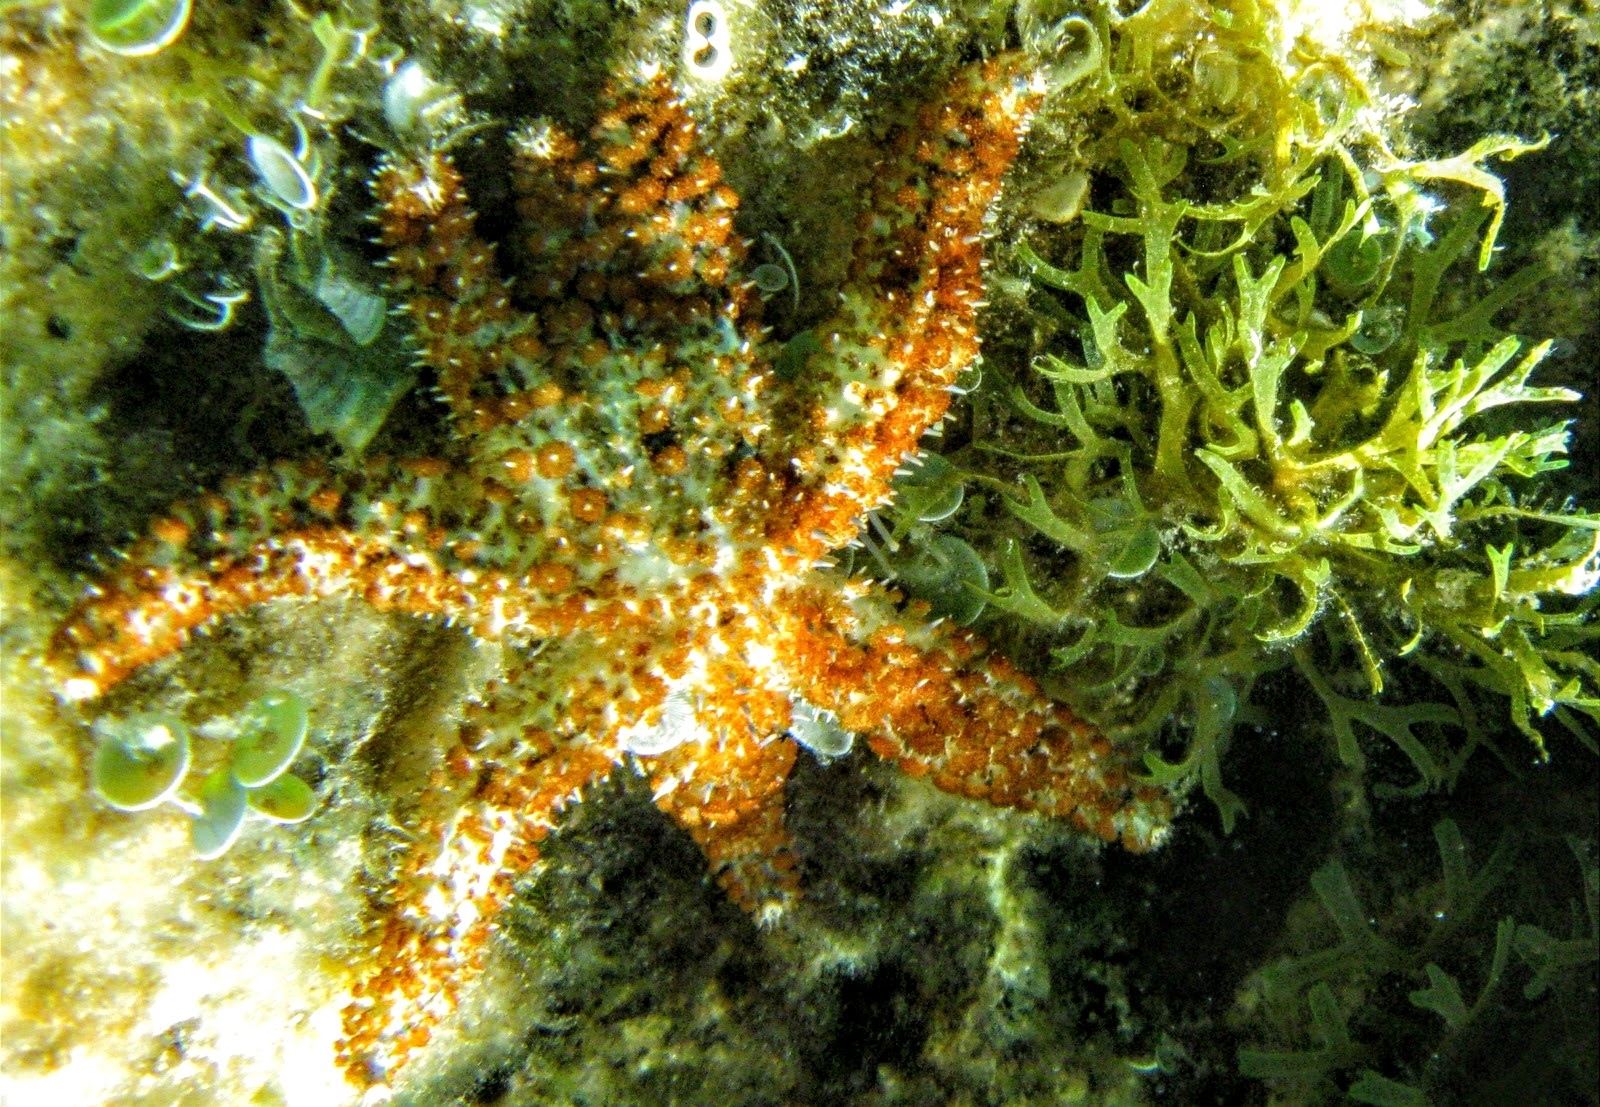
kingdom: Animalia
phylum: Echinodermata
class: Asteroidea
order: Forcipulatida
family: Asteriidae
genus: Coscinasterias
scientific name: Coscinasterias tenuispina
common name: Blue spiny starfish
